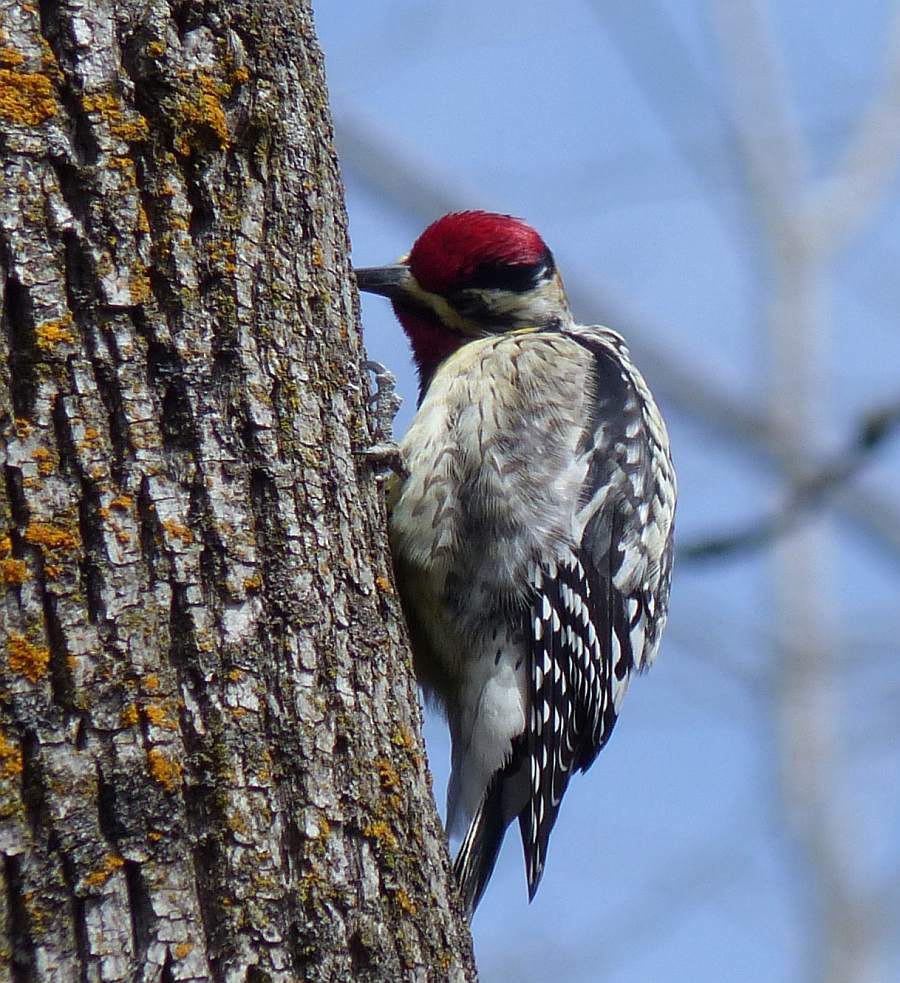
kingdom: Animalia
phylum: Chordata
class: Aves
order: Piciformes
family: Picidae
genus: Sphyrapicus
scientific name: Sphyrapicus varius
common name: Yellow-bellied sapsucker
